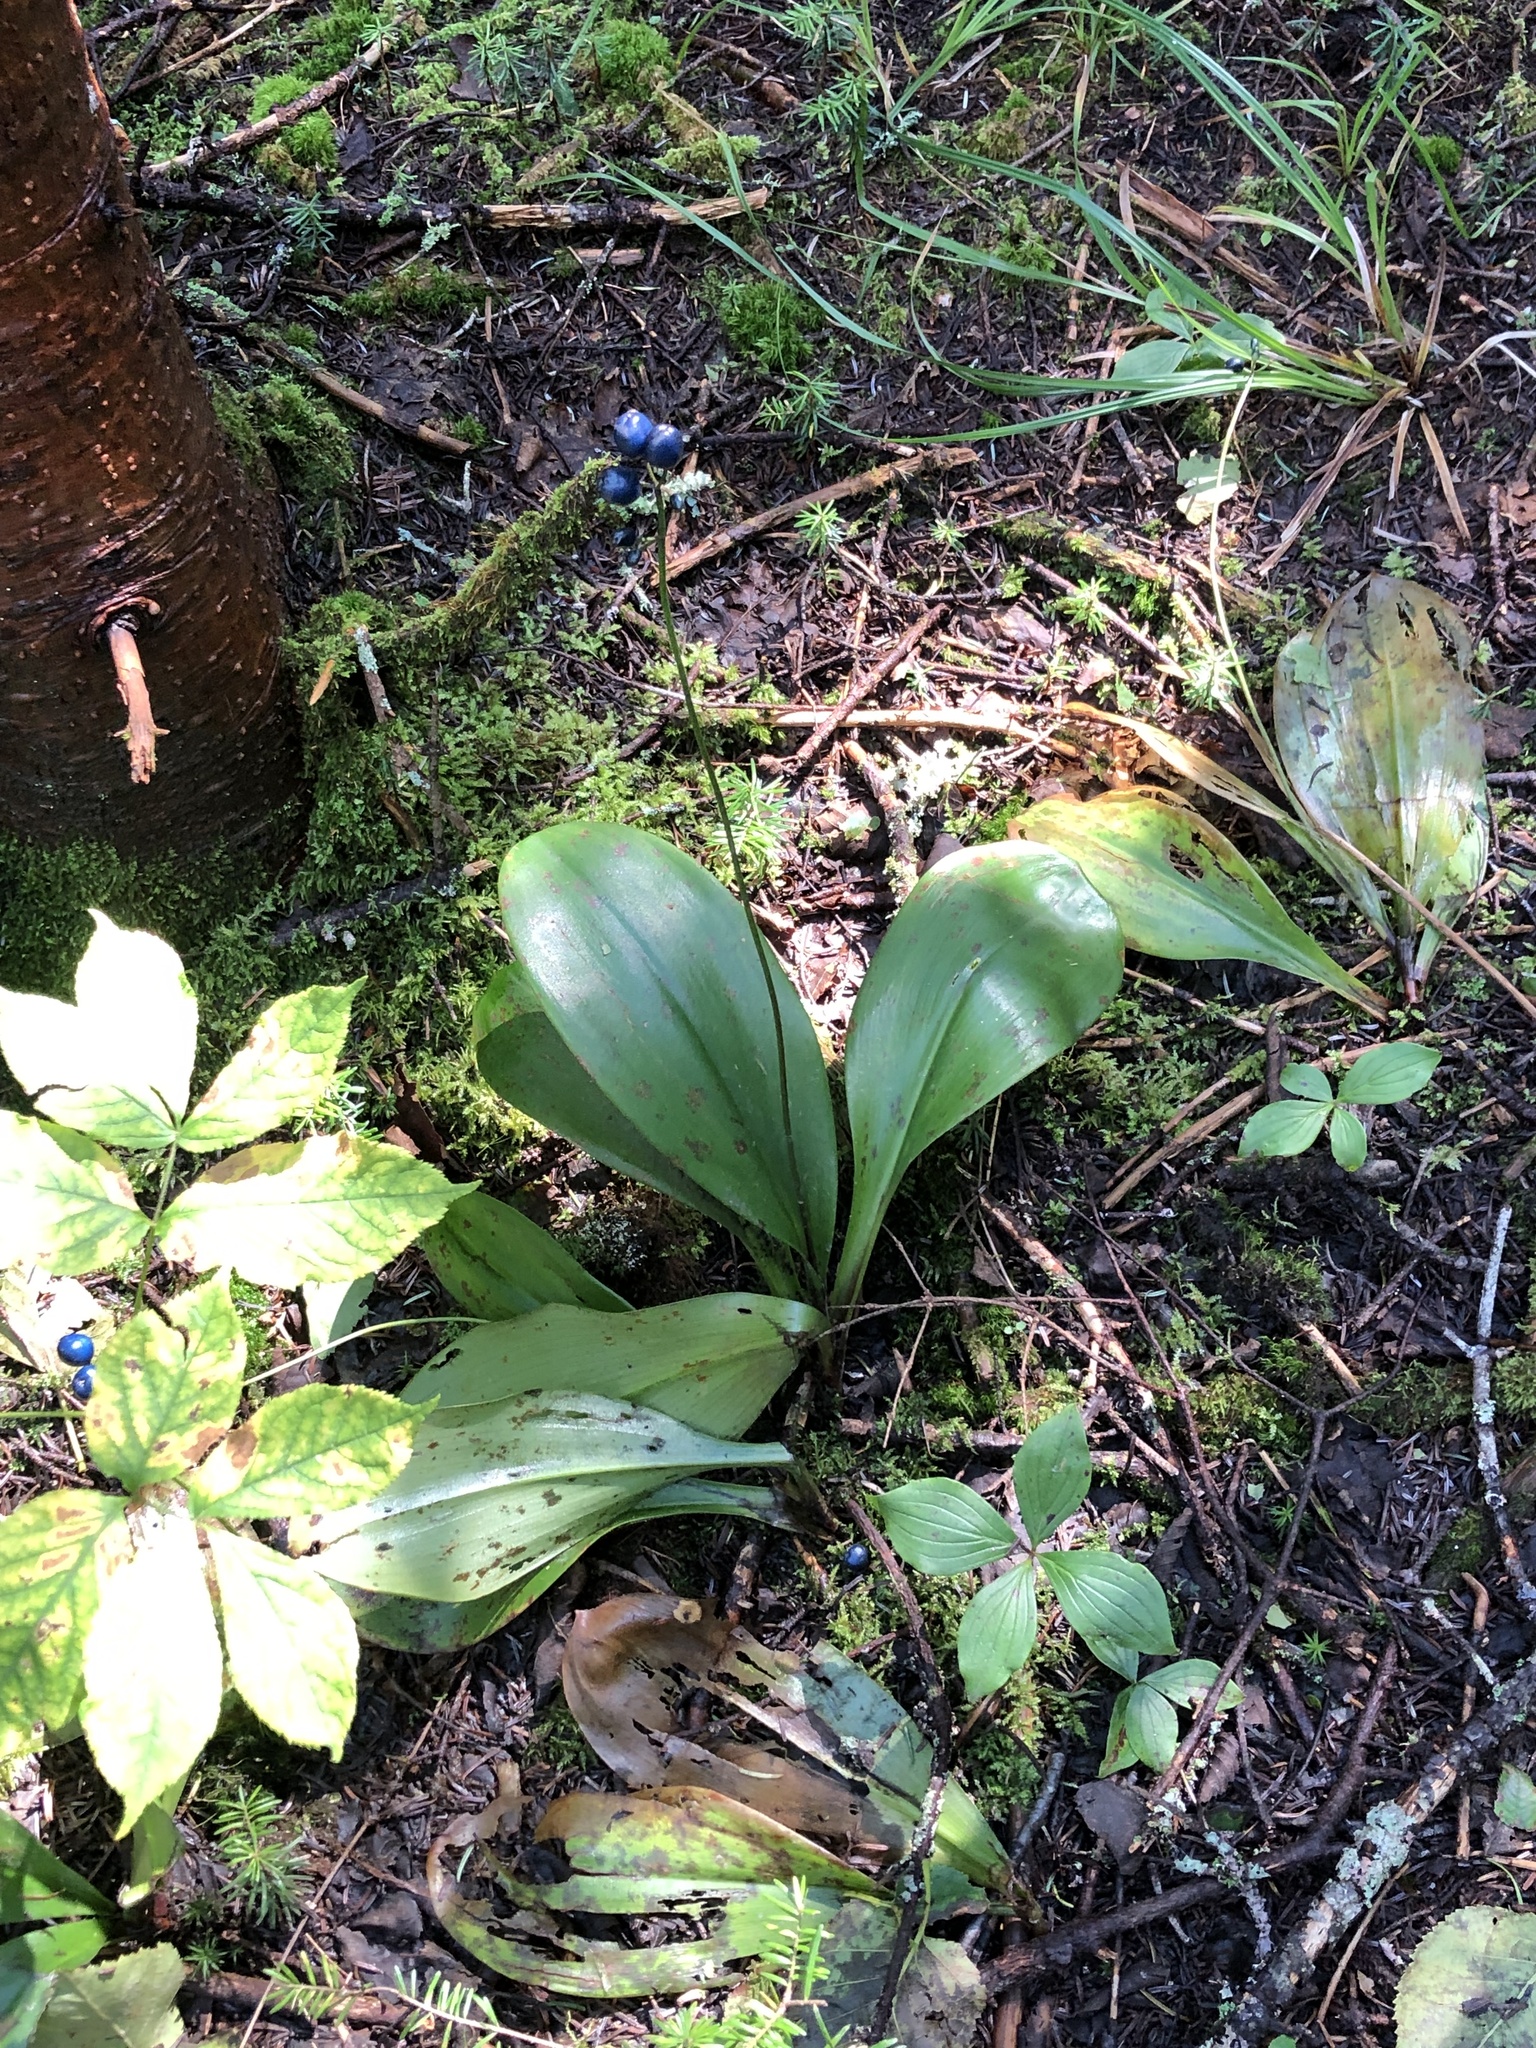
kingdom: Plantae
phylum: Tracheophyta
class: Liliopsida
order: Liliales
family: Liliaceae
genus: Clintonia
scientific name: Clintonia borealis
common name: Yellow clintonia
